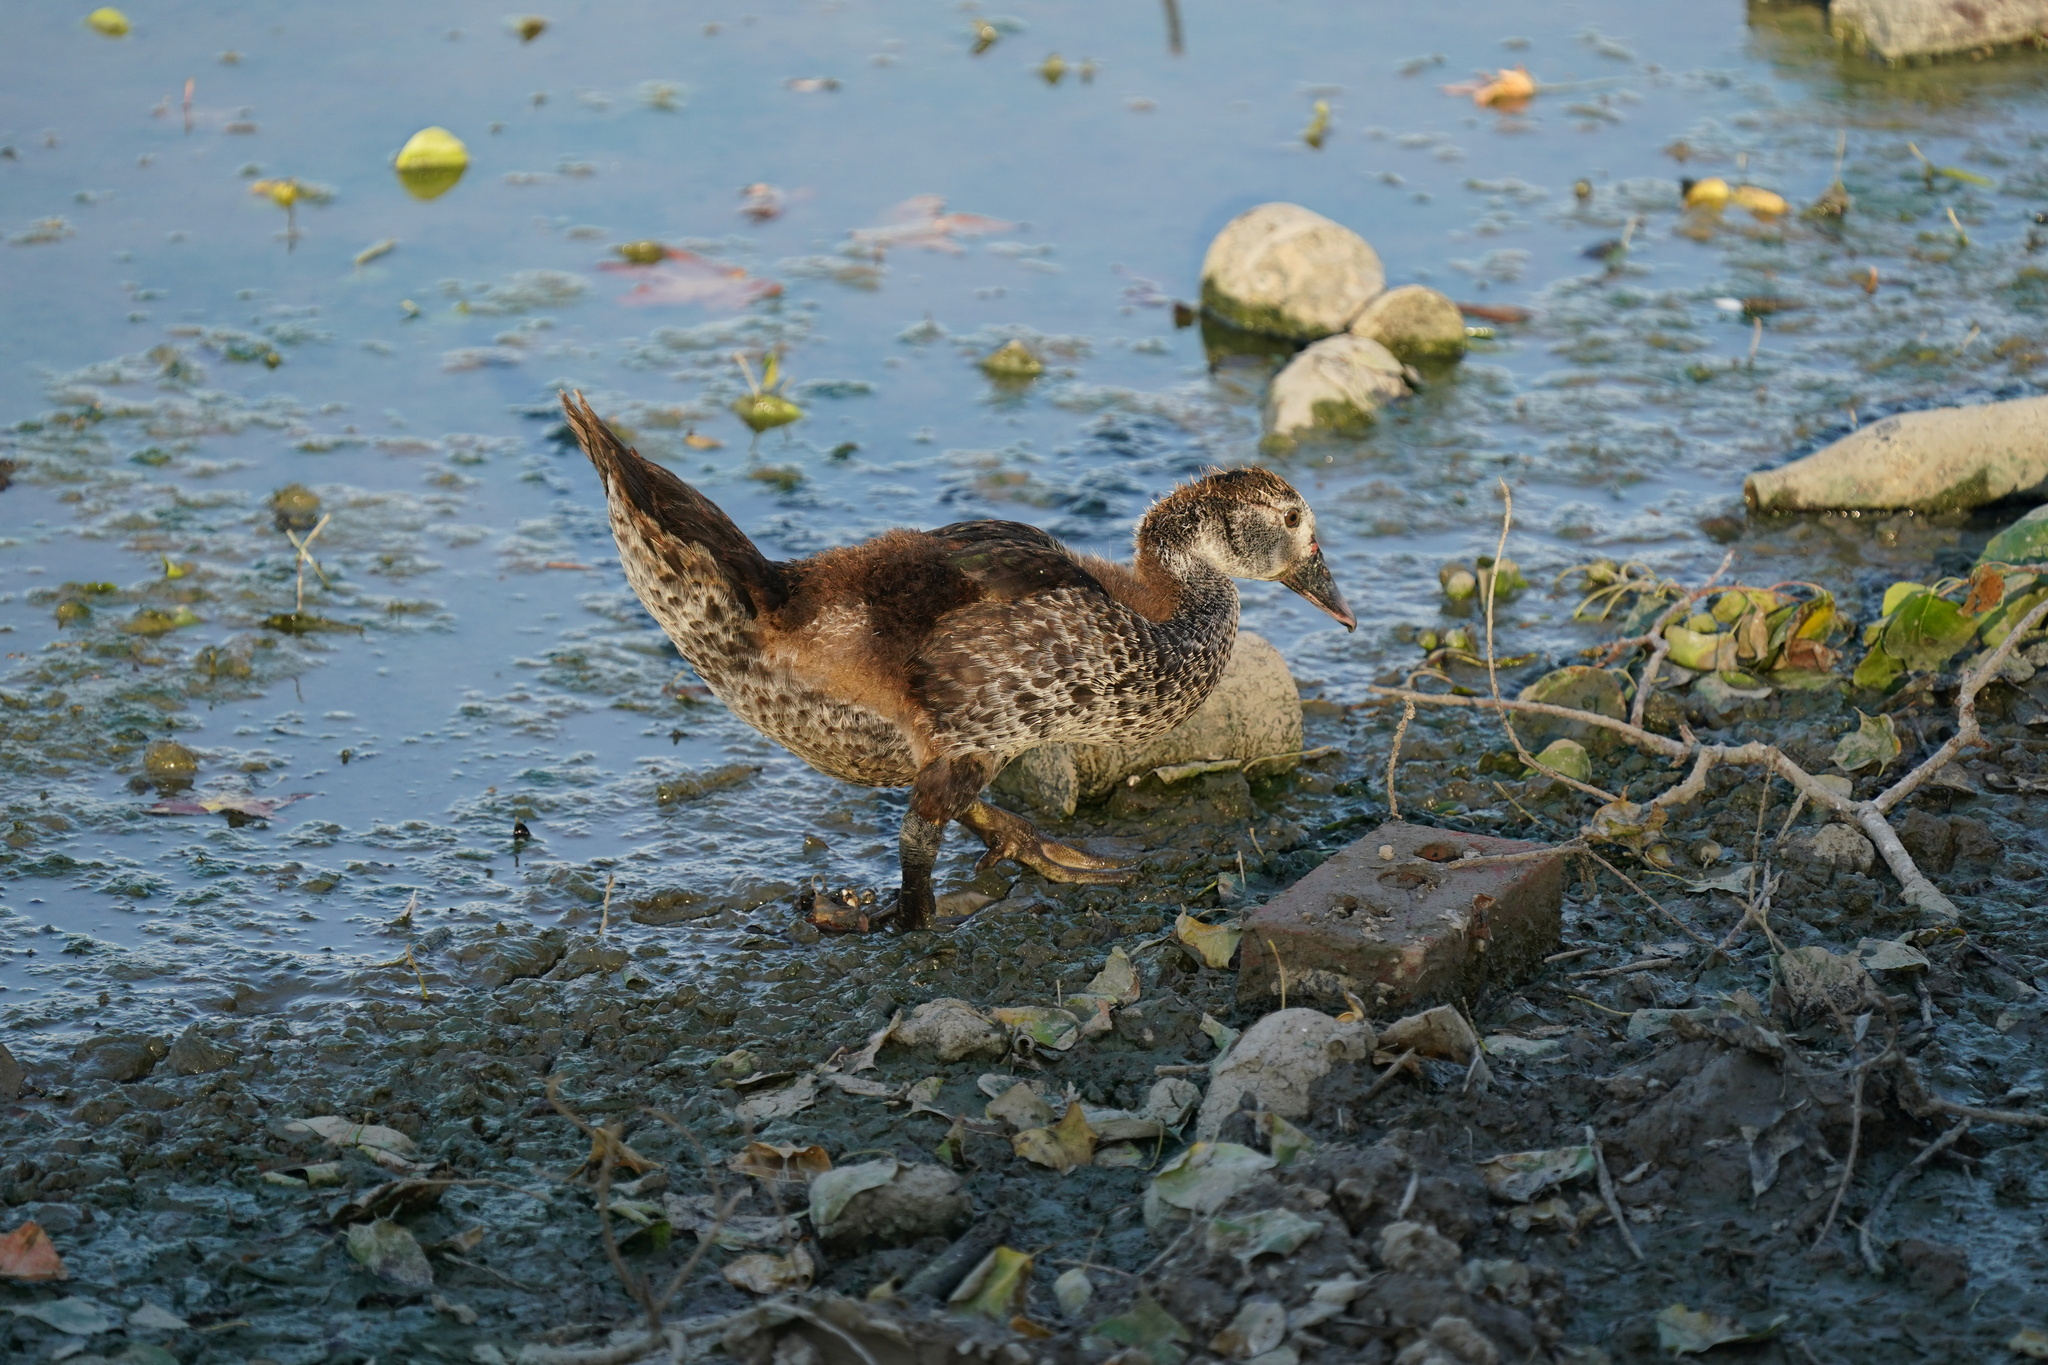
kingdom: Animalia
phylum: Chordata
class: Aves
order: Anseriformes
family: Anatidae
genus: Cairina
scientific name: Cairina moschata
